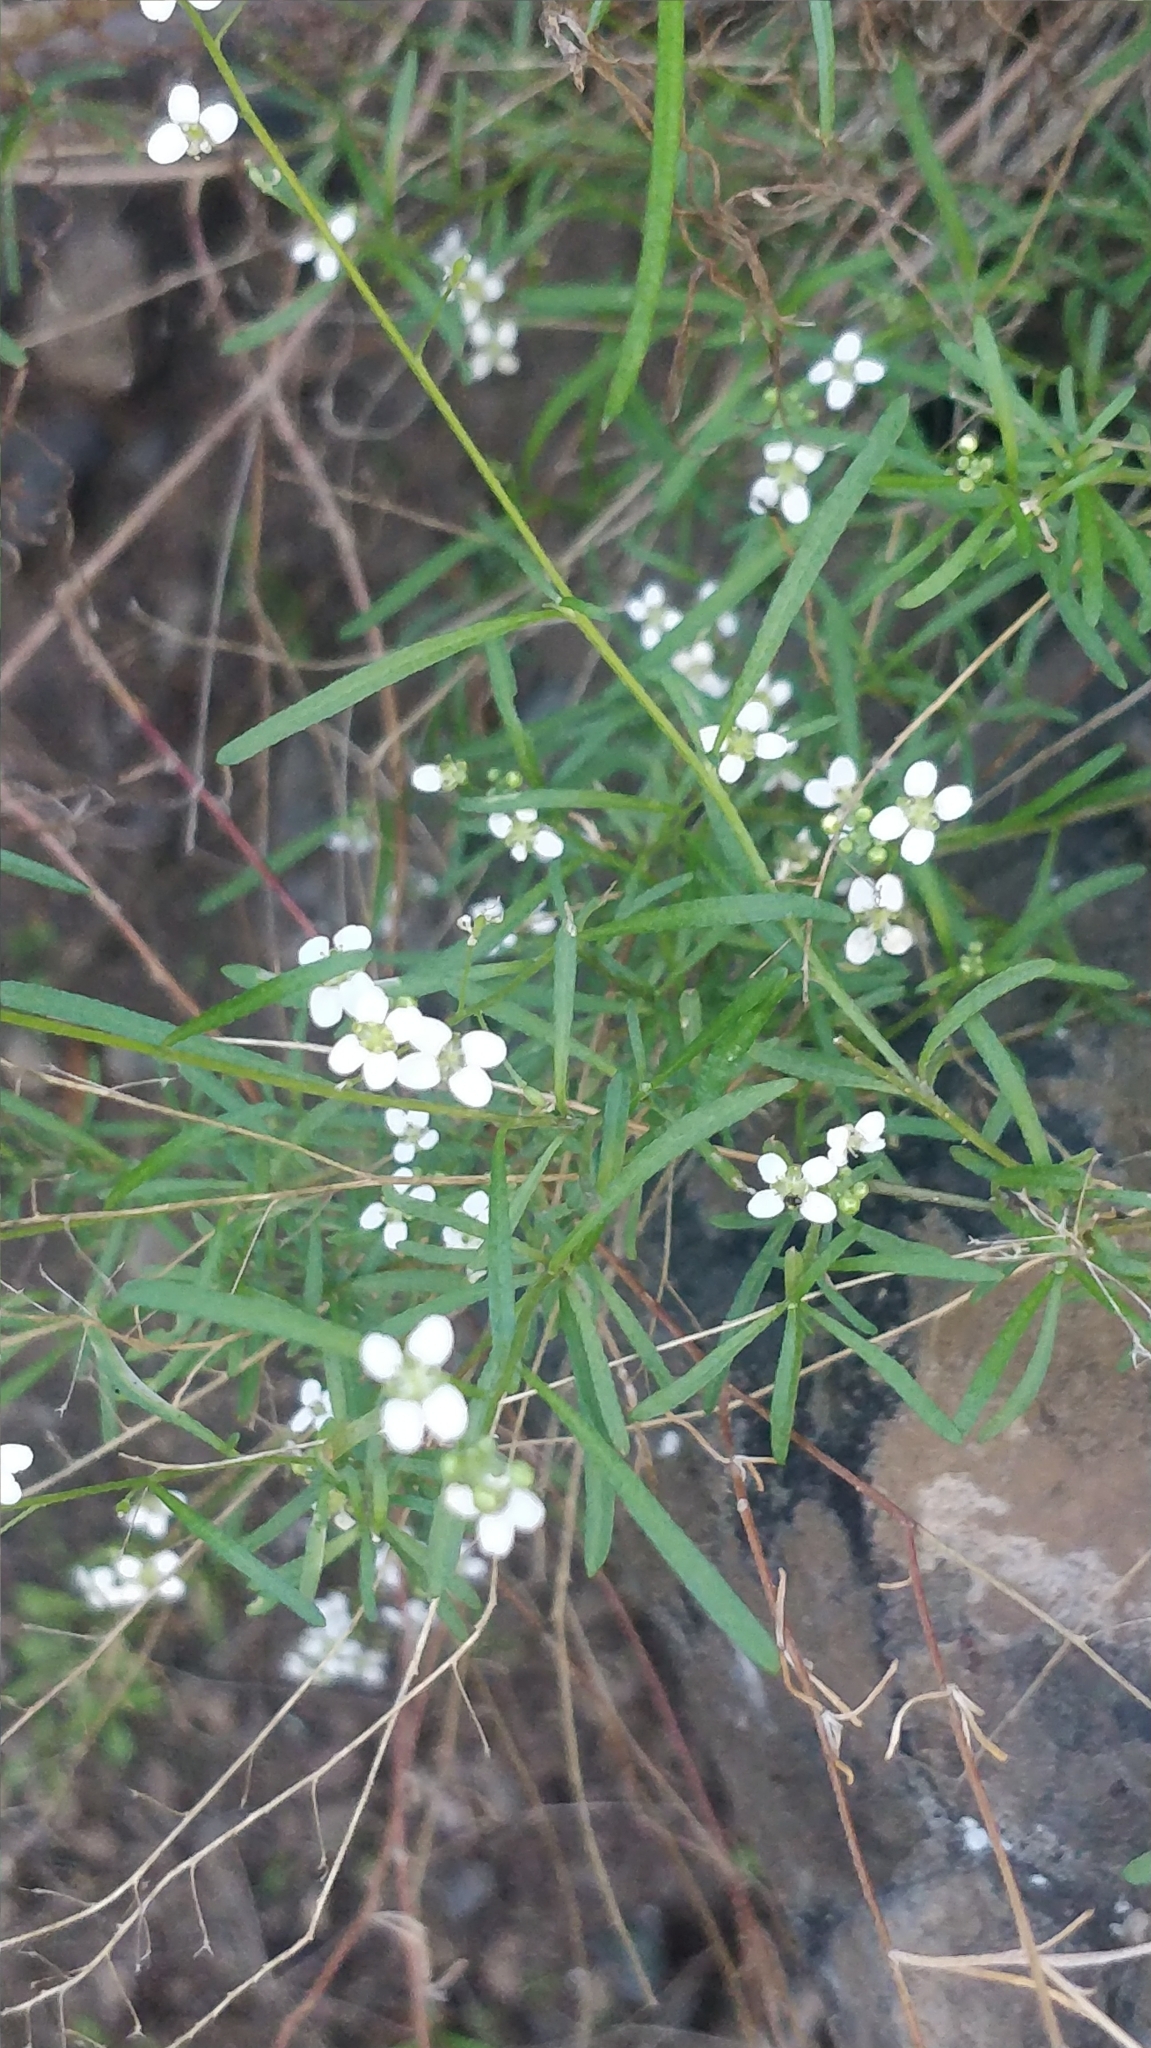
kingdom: Plantae
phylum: Tracheophyta
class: Magnoliopsida
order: Brassicales
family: Brassicaceae
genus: Lobularia
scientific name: Lobularia canariensis
